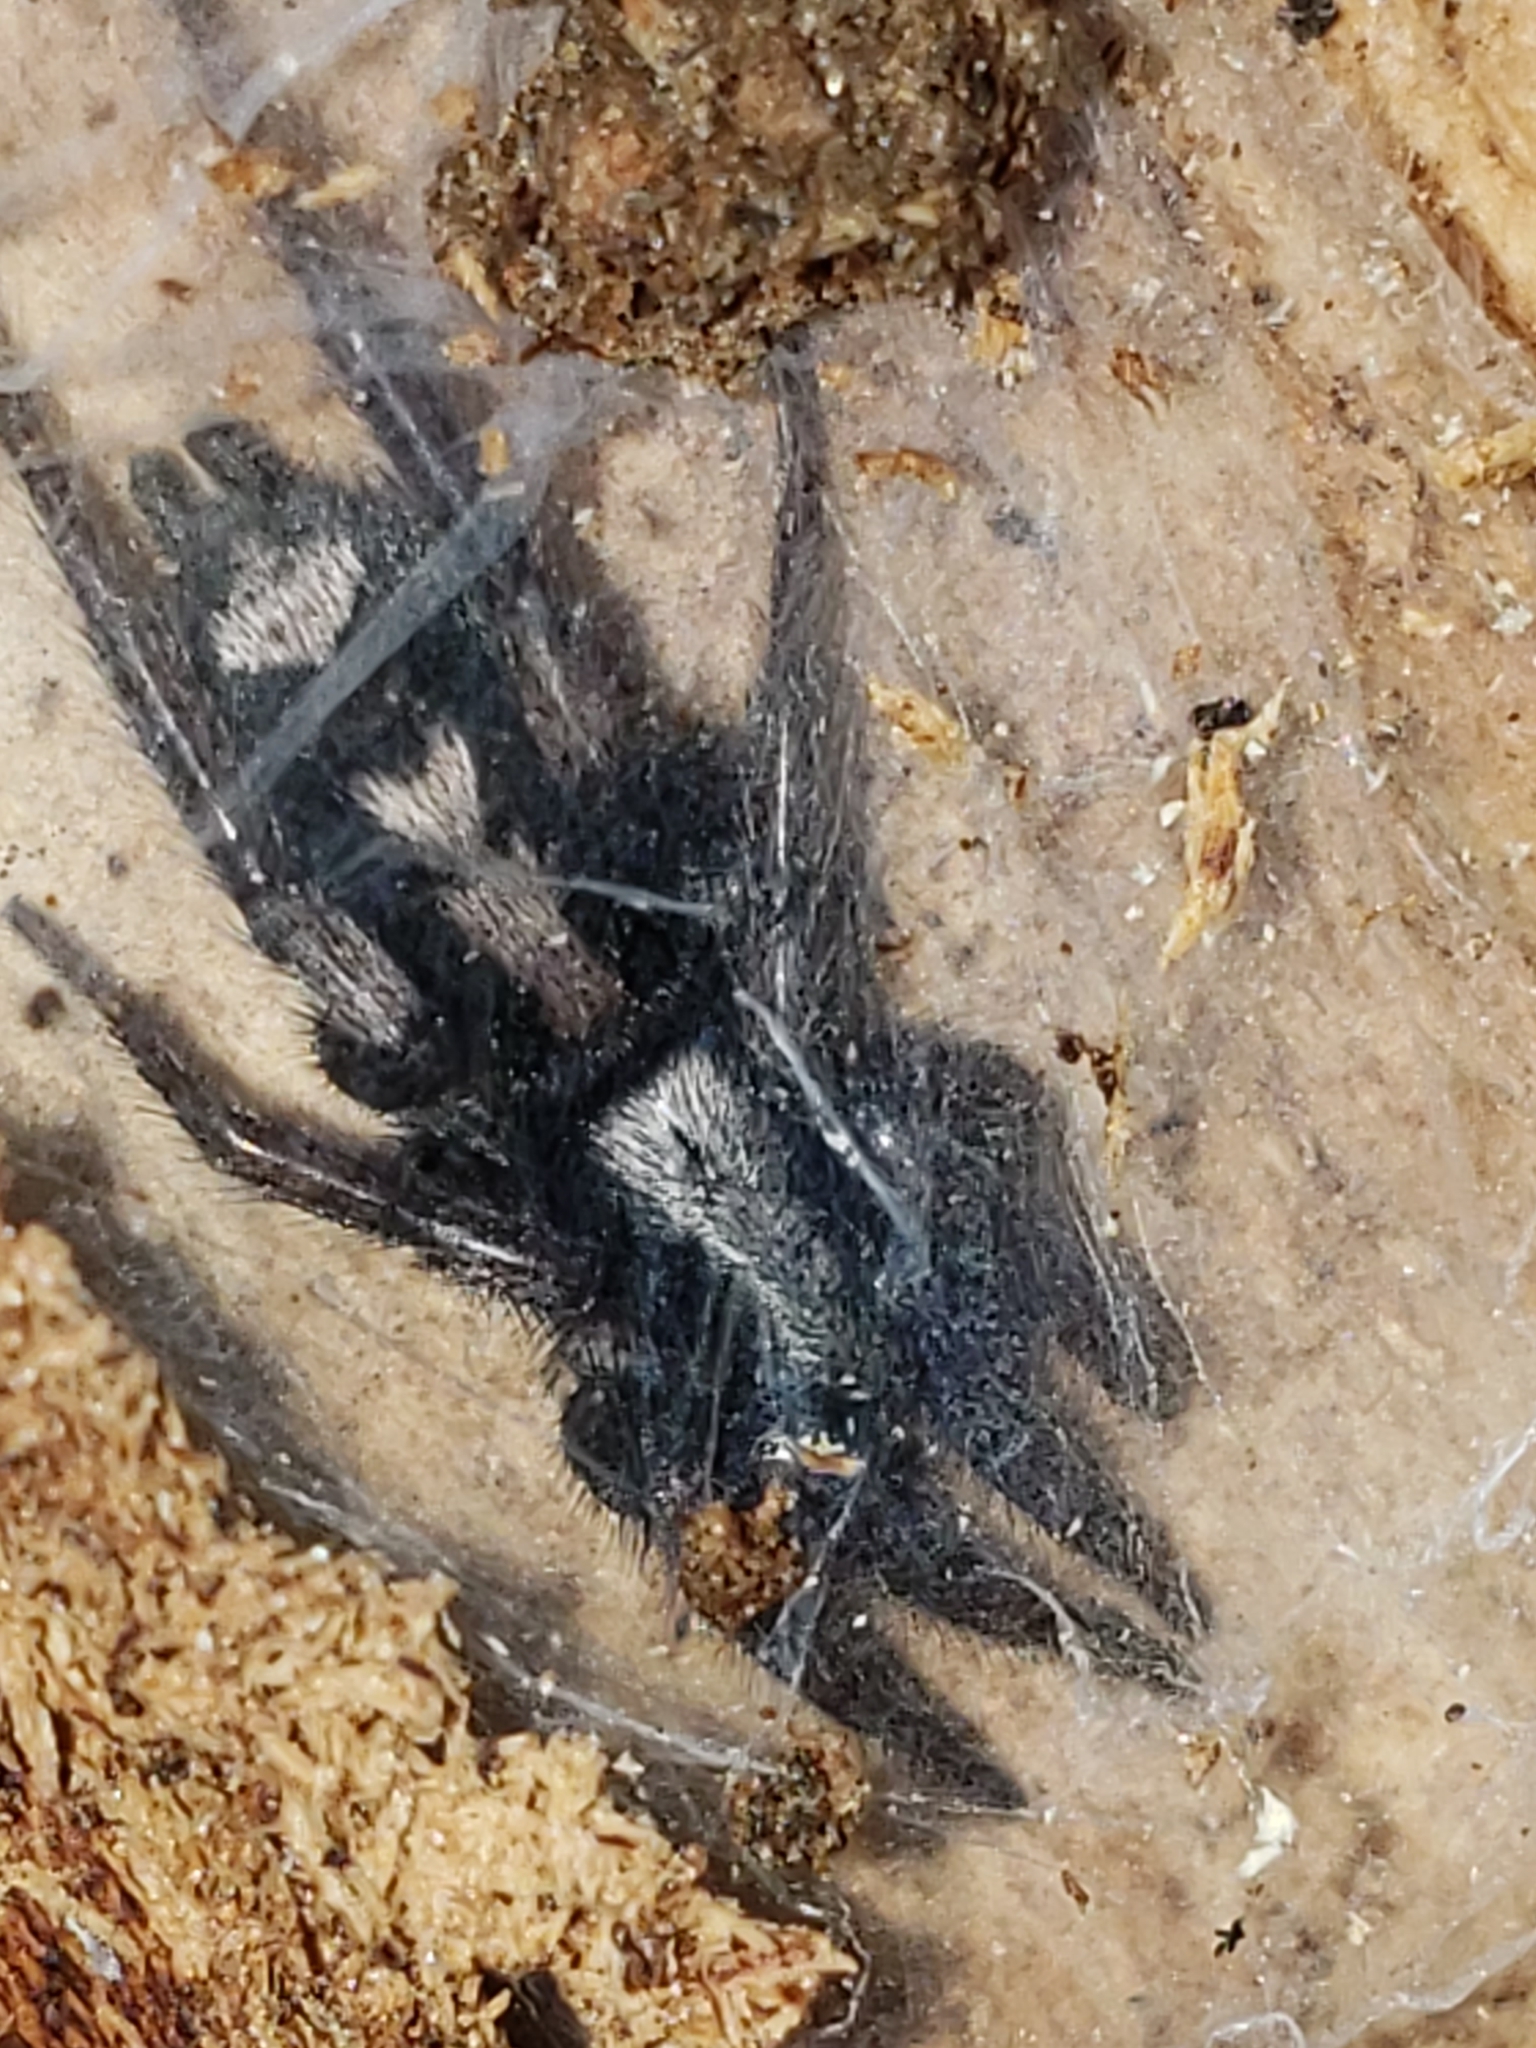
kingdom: Animalia
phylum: Arthropoda
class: Arachnida
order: Araneae
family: Gnaphosidae
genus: Herpyllus
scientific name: Herpyllus ecclesiasticus
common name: Eastern parson spider
